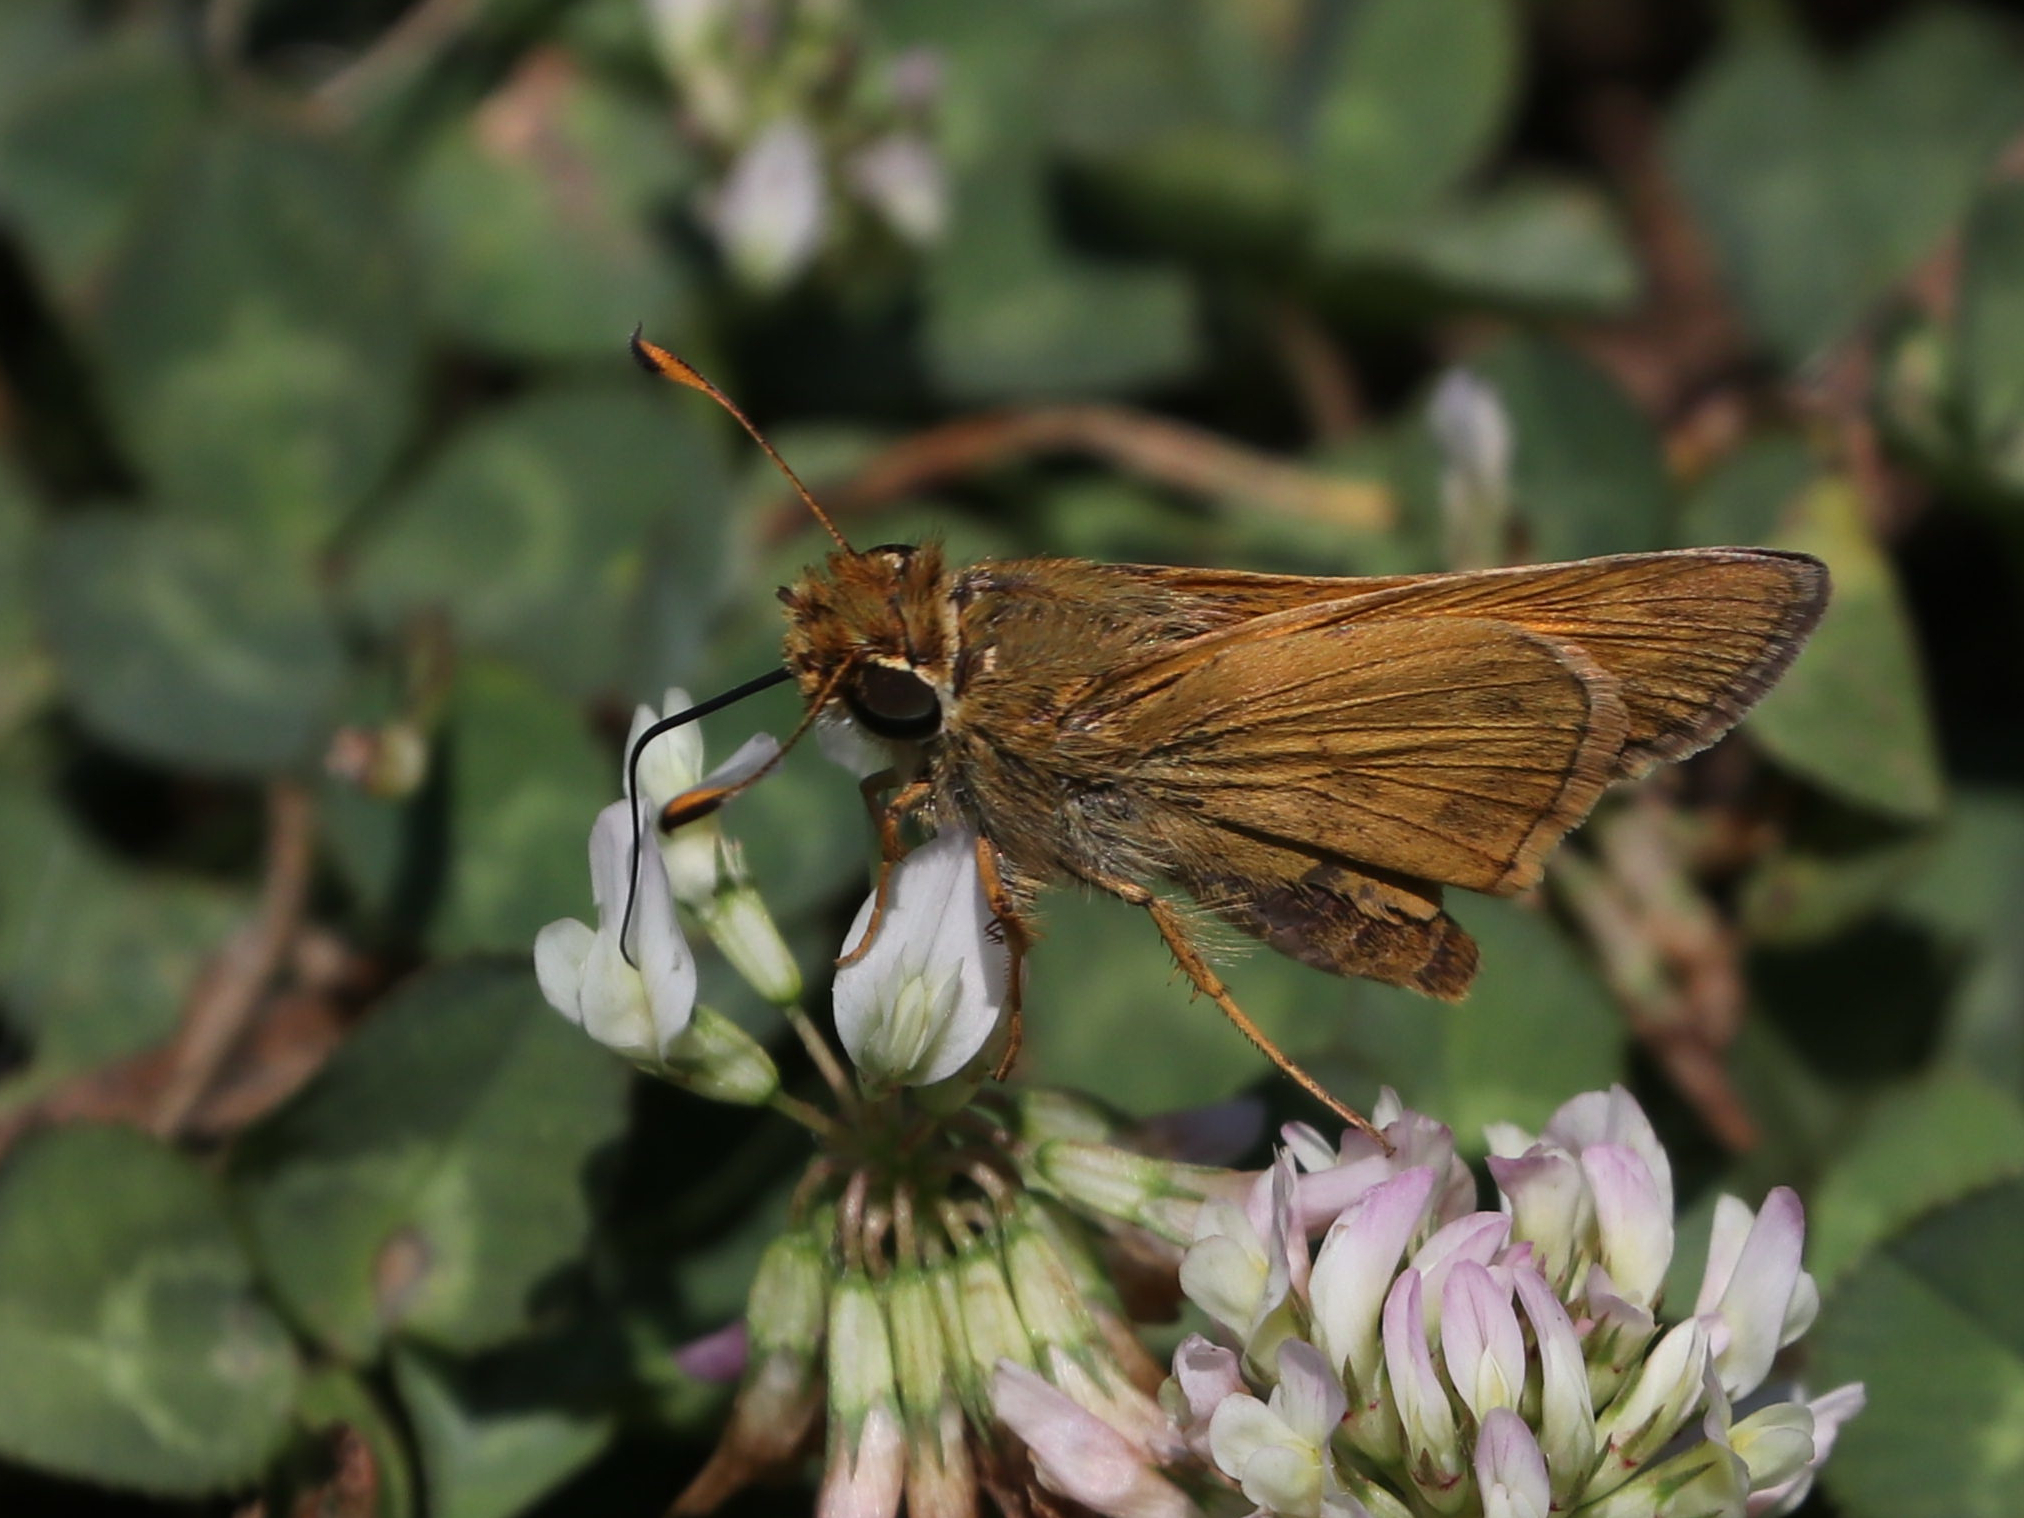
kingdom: Animalia
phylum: Arthropoda
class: Insecta
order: Lepidoptera
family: Hesperiidae
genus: Atalopedes
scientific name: Atalopedes
